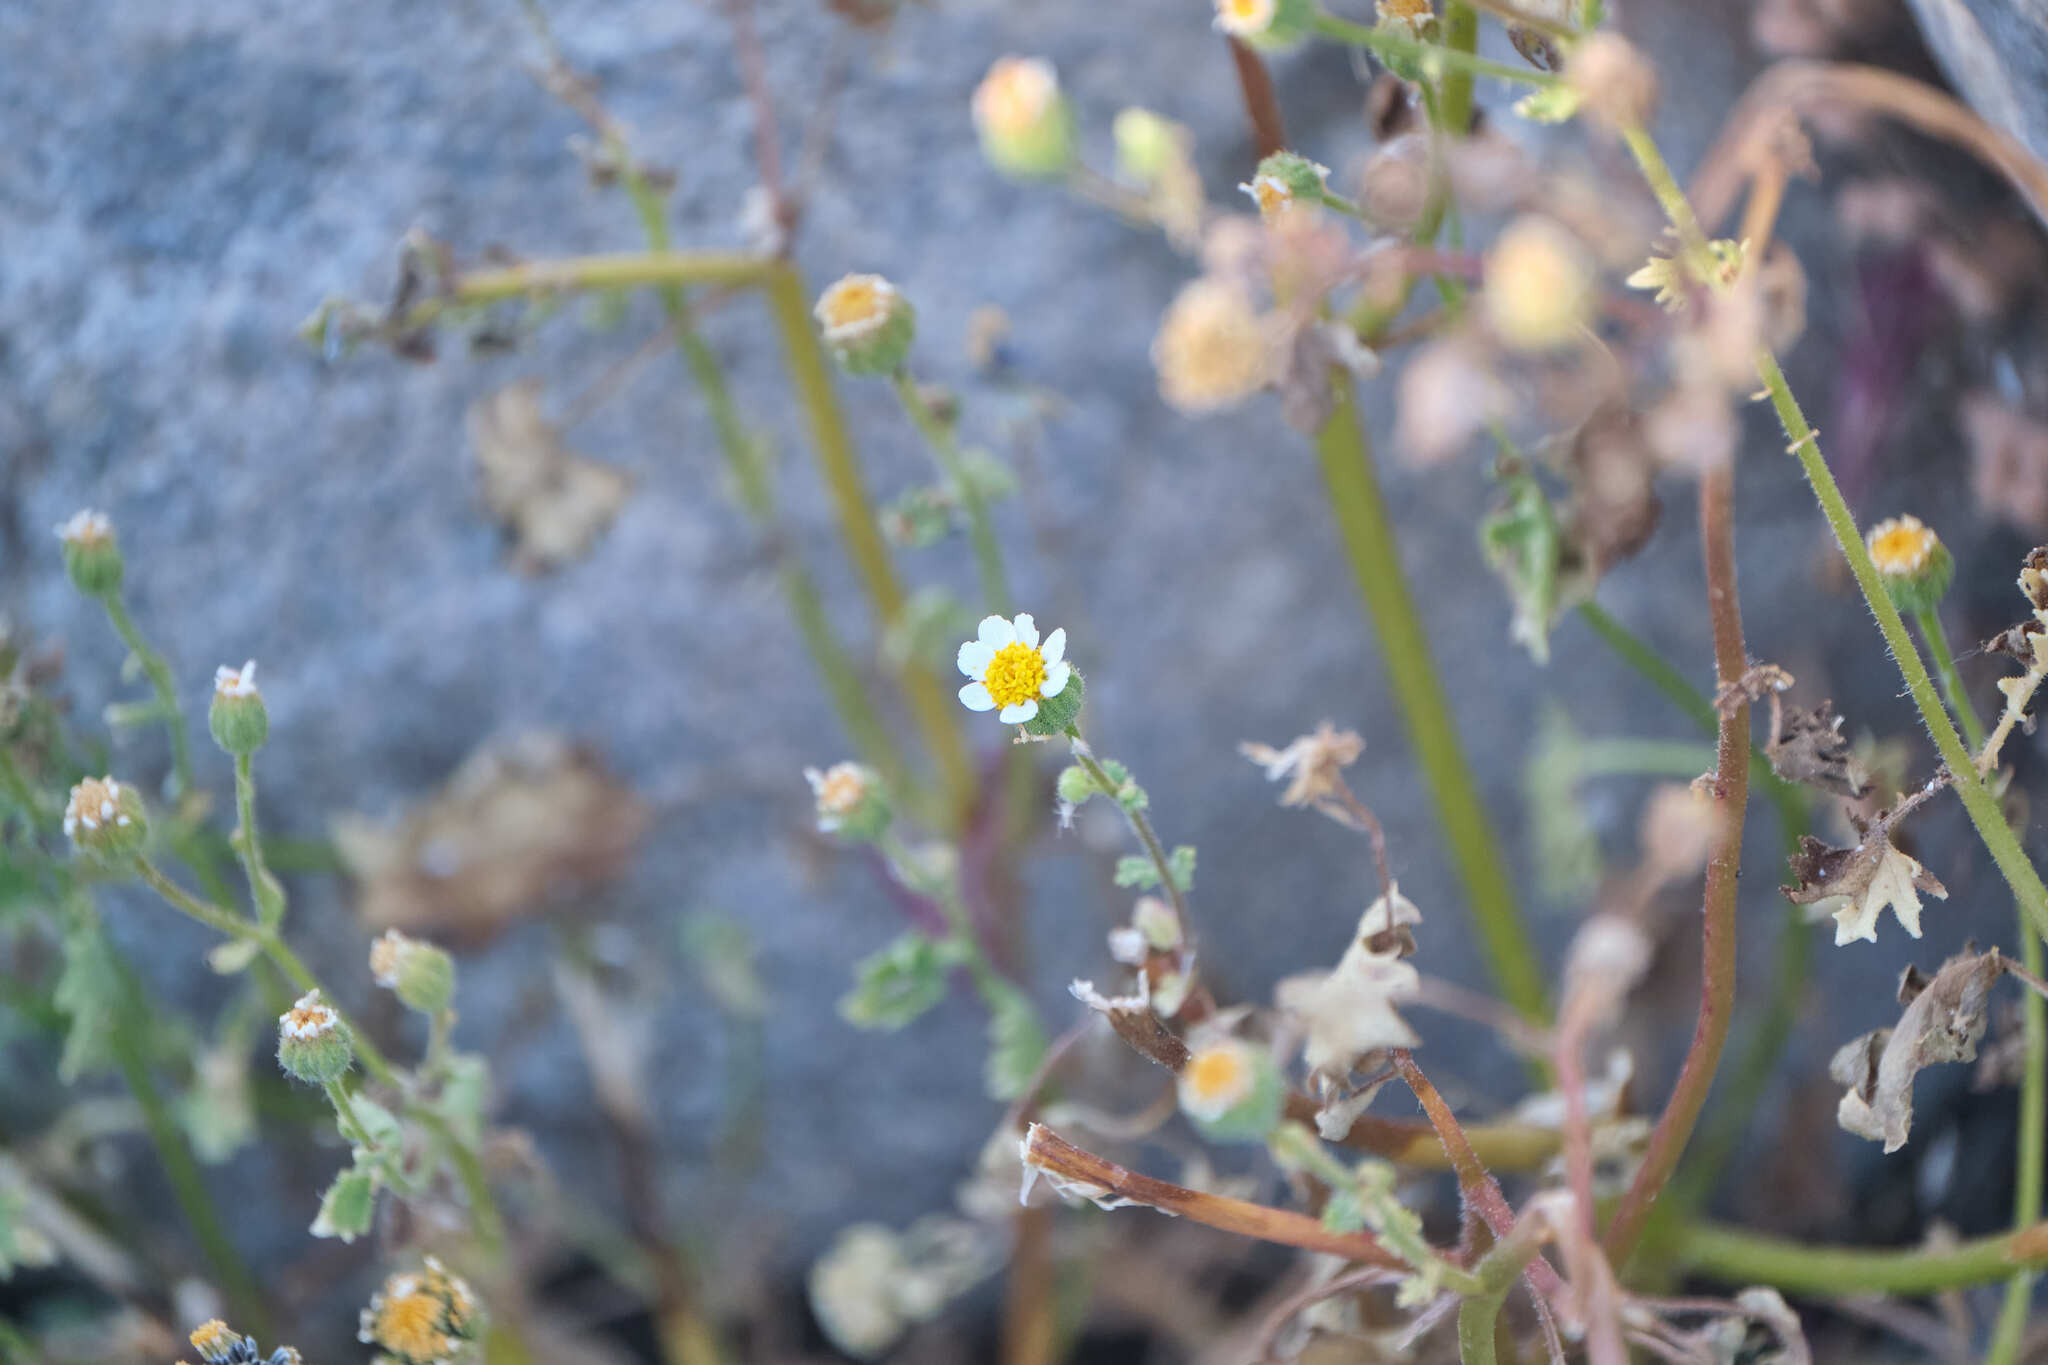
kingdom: Plantae
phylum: Tracheophyta
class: Magnoliopsida
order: Asterales
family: Asteraceae
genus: Laphamia
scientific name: Laphamia emoryi
